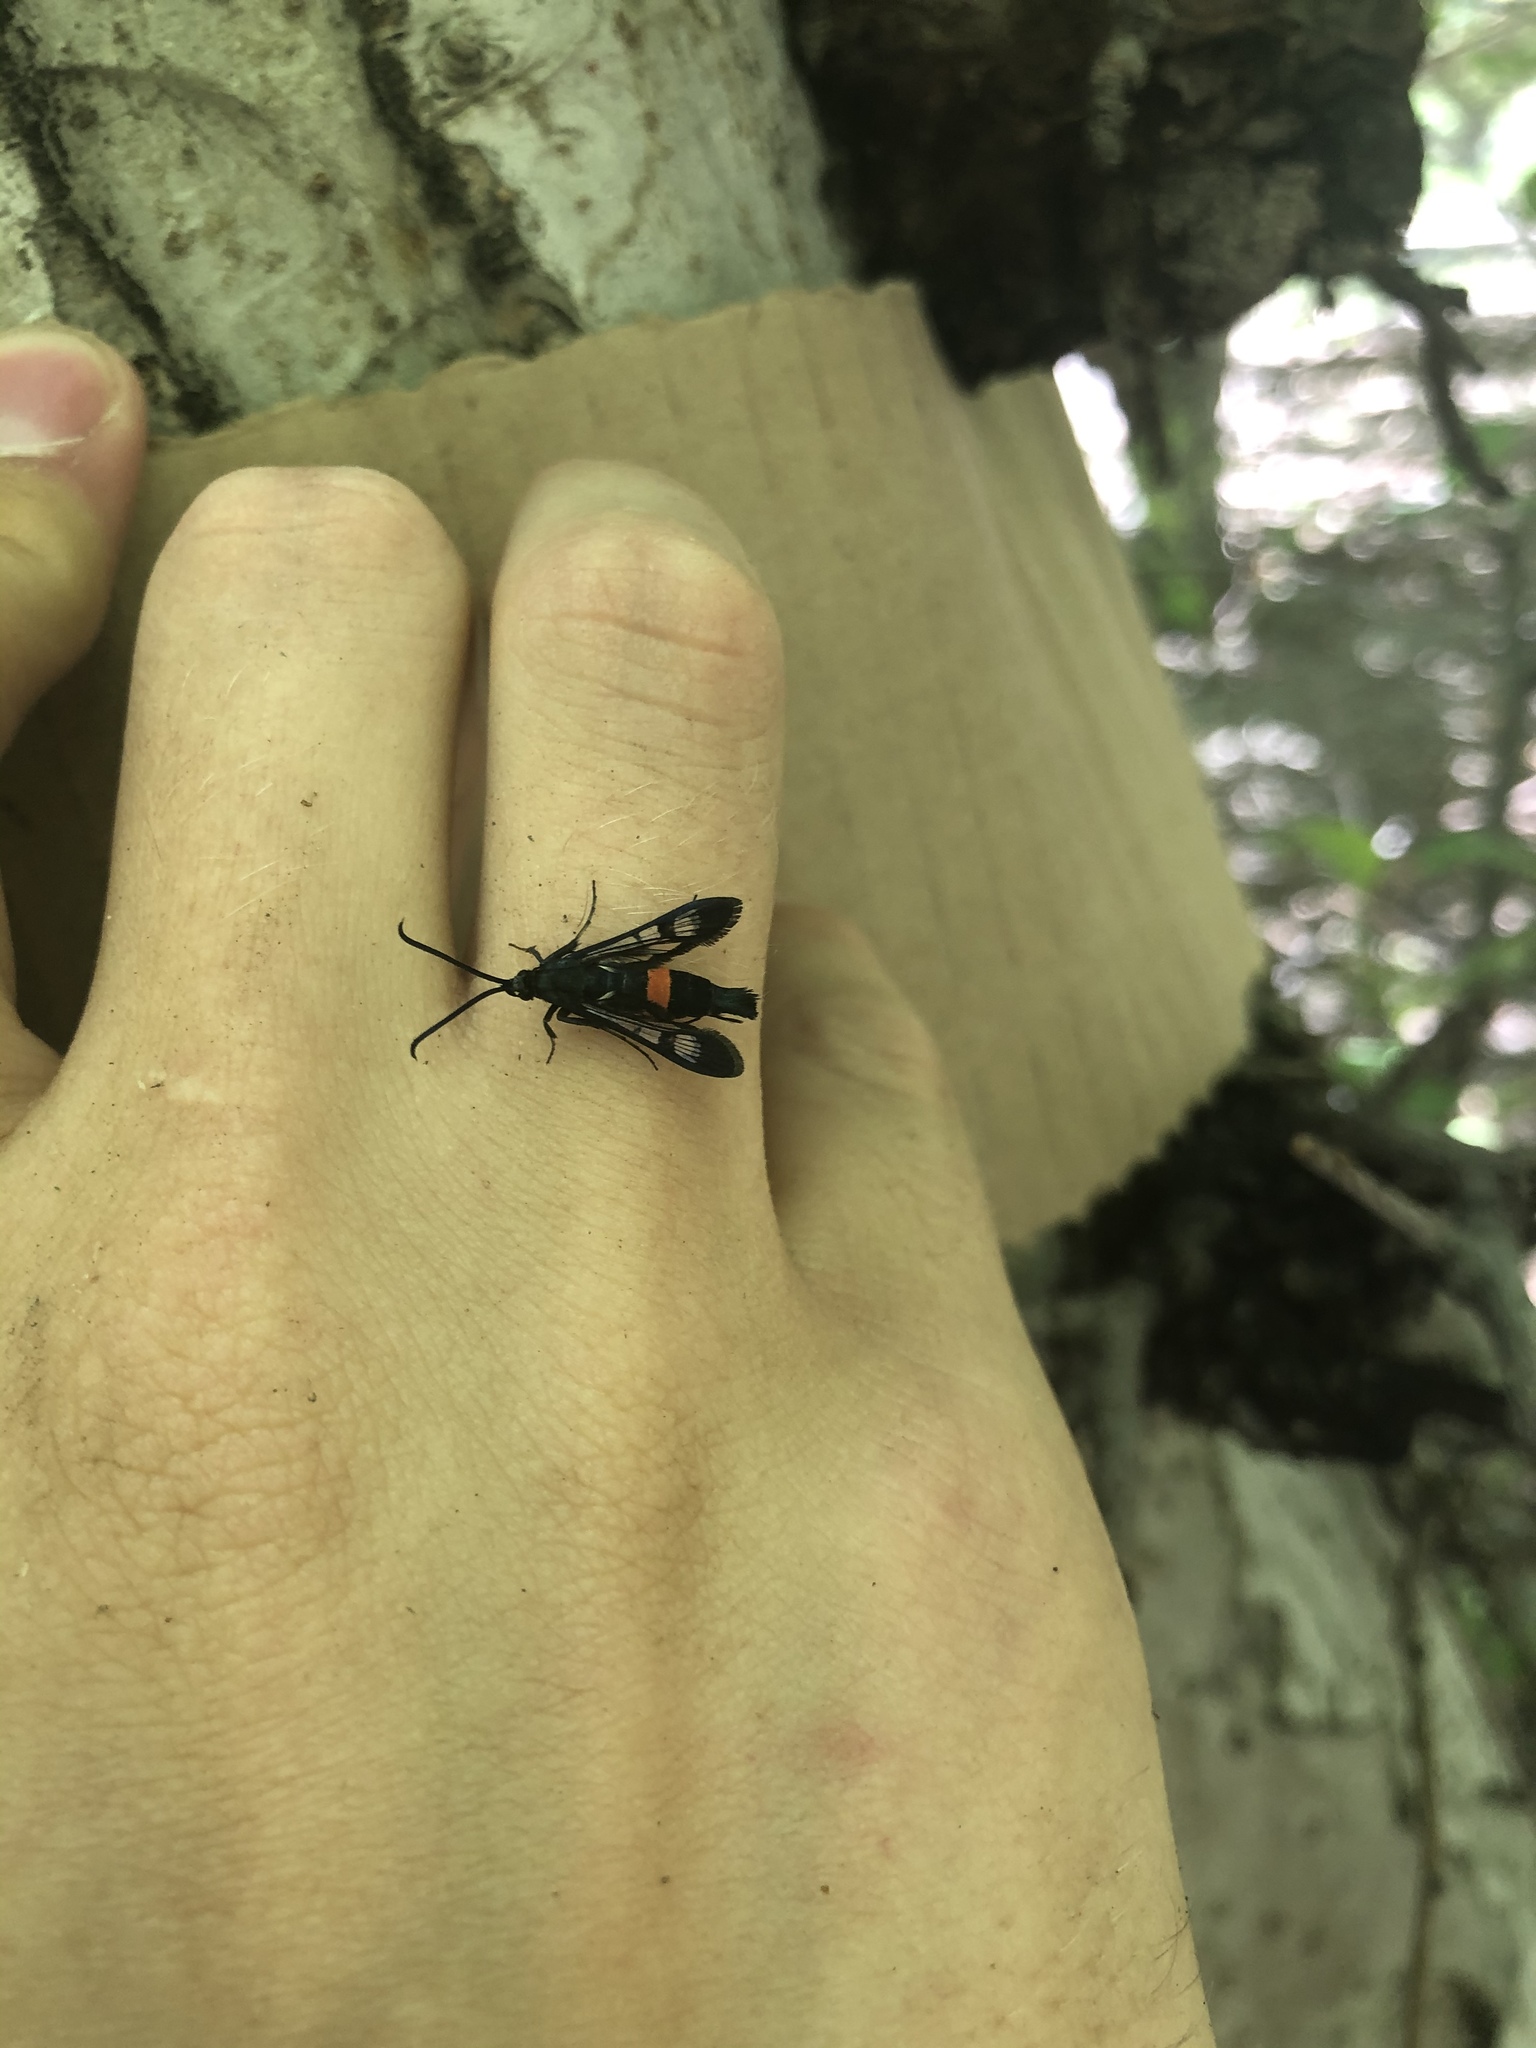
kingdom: Animalia
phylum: Arthropoda
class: Insecta
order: Lepidoptera
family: Sesiidae
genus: Synanthedon
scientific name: Synanthedon myopaeformis
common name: Red-belted clearwing
